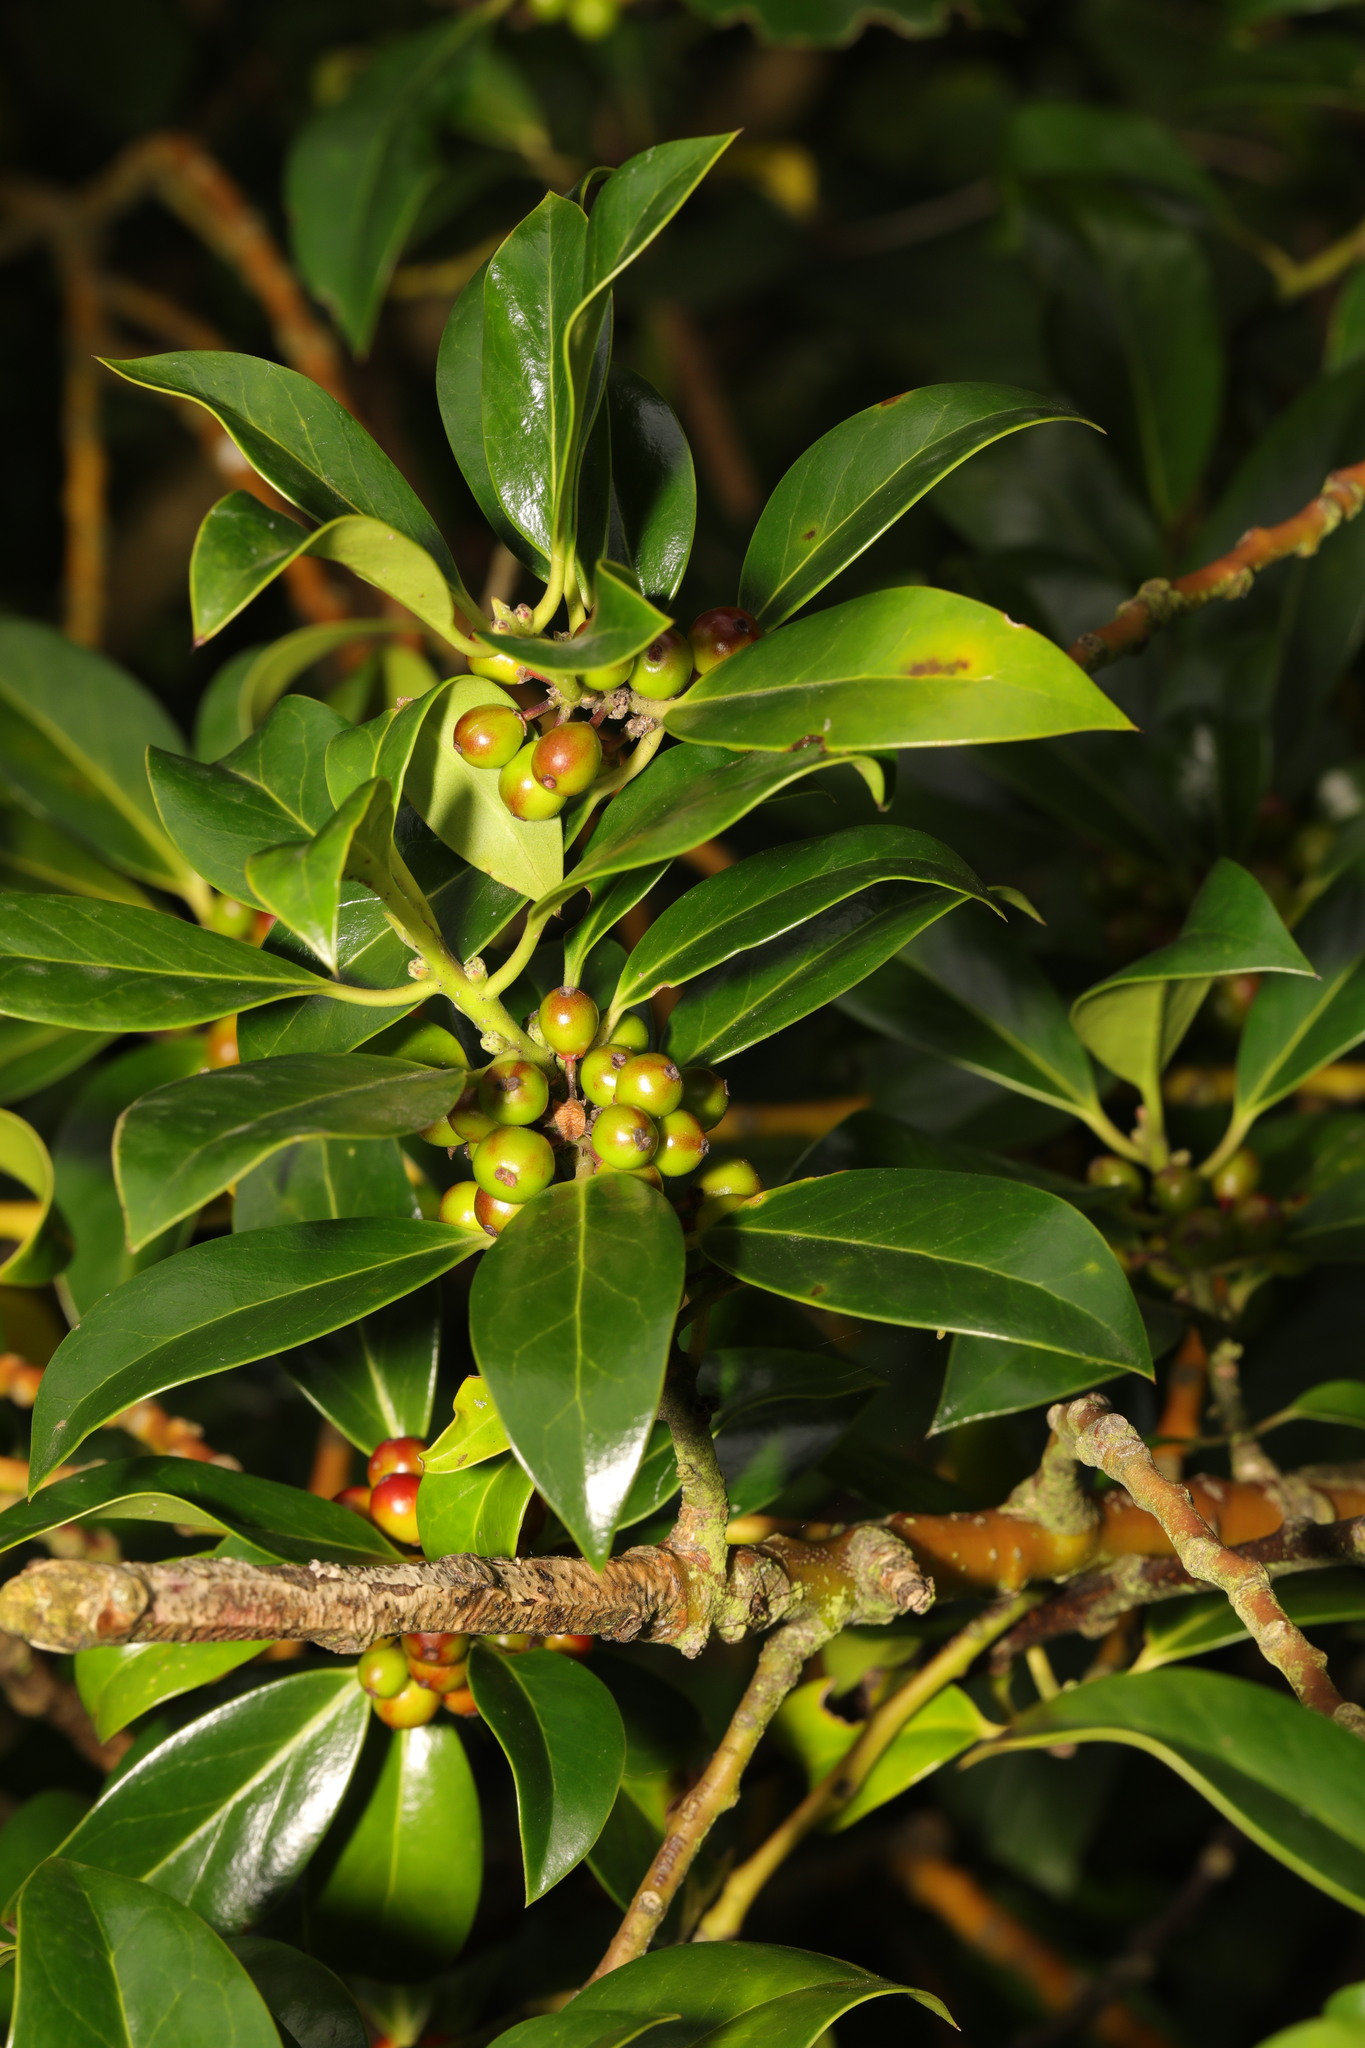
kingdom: Plantae
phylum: Tracheophyta
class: Magnoliopsida
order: Aquifoliales
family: Aquifoliaceae
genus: Ilex
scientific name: Ilex altaclerensis
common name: Highclere holly
